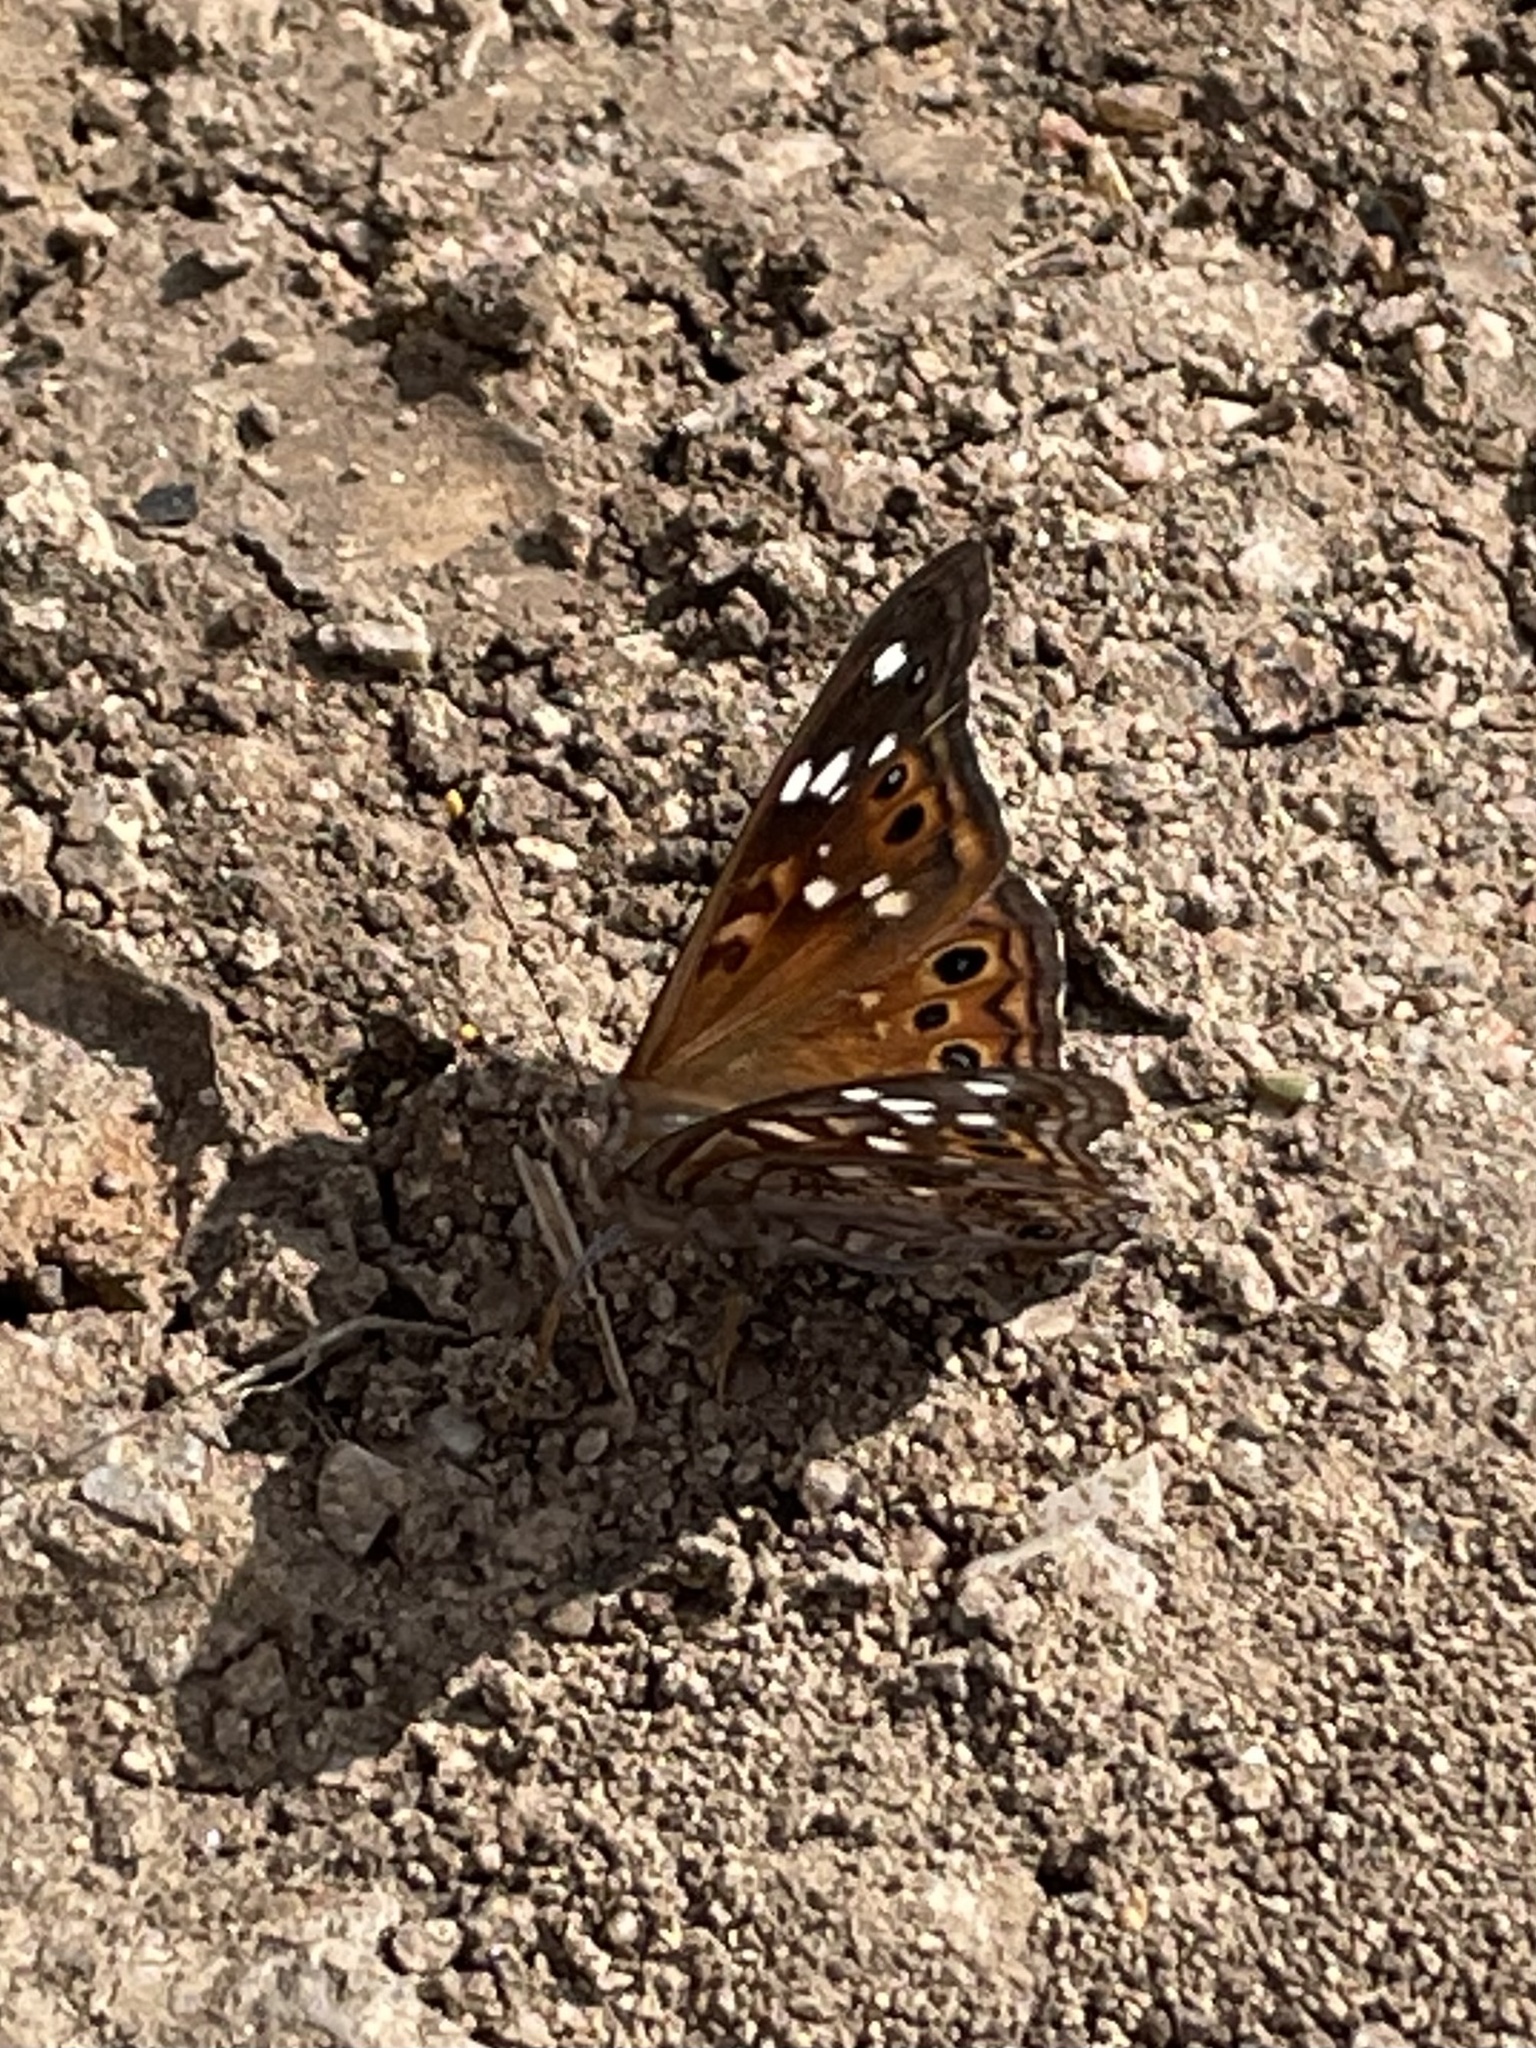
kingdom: Animalia
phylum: Arthropoda
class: Insecta
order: Lepidoptera
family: Nymphalidae
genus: Asterocampa
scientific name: Asterocampa leilia
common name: Empress leilia
